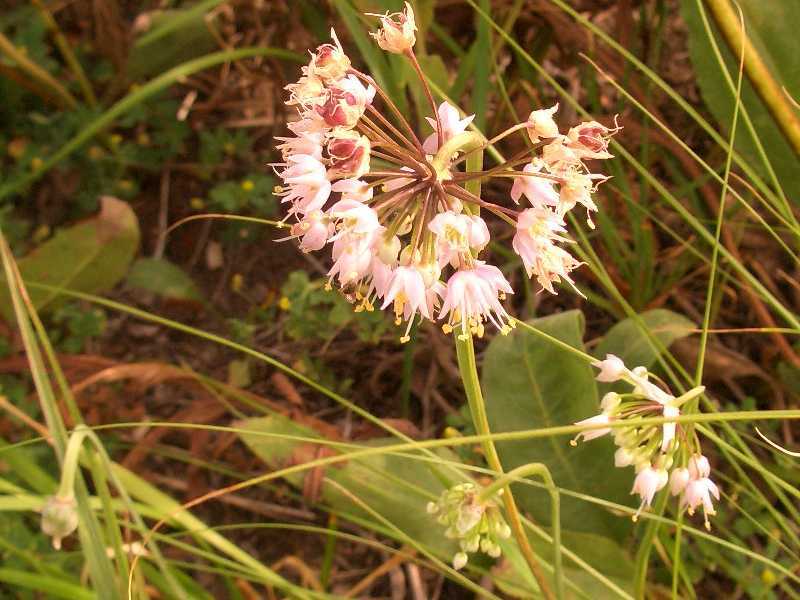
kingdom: Plantae
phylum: Tracheophyta
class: Liliopsida
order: Asparagales
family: Amaryllidaceae
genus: Allium
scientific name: Allium cernuum
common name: Nodding onion
